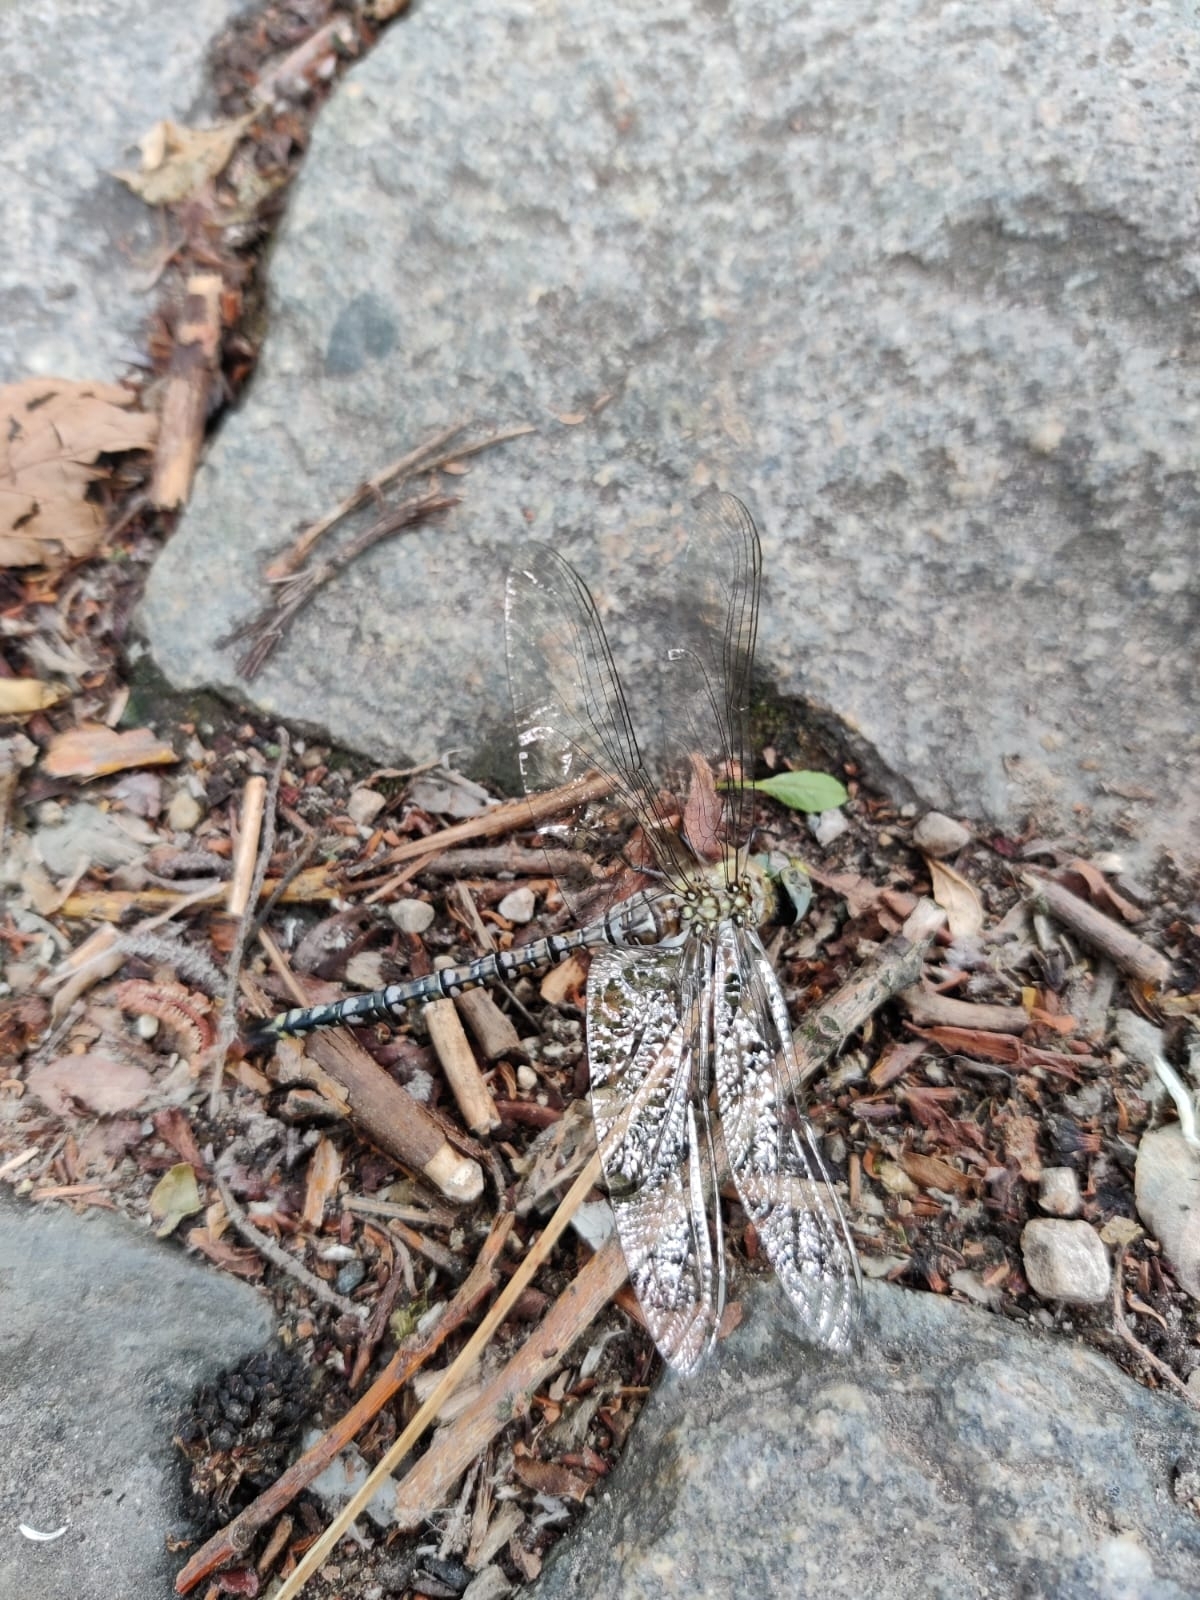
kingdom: Animalia
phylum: Arthropoda
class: Insecta
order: Odonata
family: Aeshnidae
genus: Aeshna
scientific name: Aeshna mixta
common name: Migrant hawker
